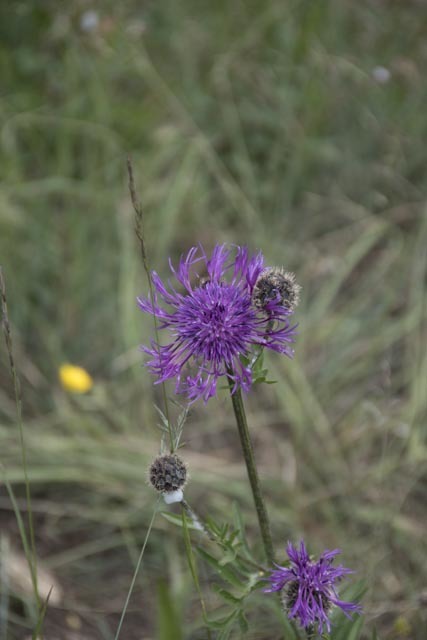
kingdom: Plantae
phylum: Tracheophyta
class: Magnoliopsida
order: Asterales
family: Asteraceae
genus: Centaurea
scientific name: Centaurea scabiosa
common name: Greater knapweed
